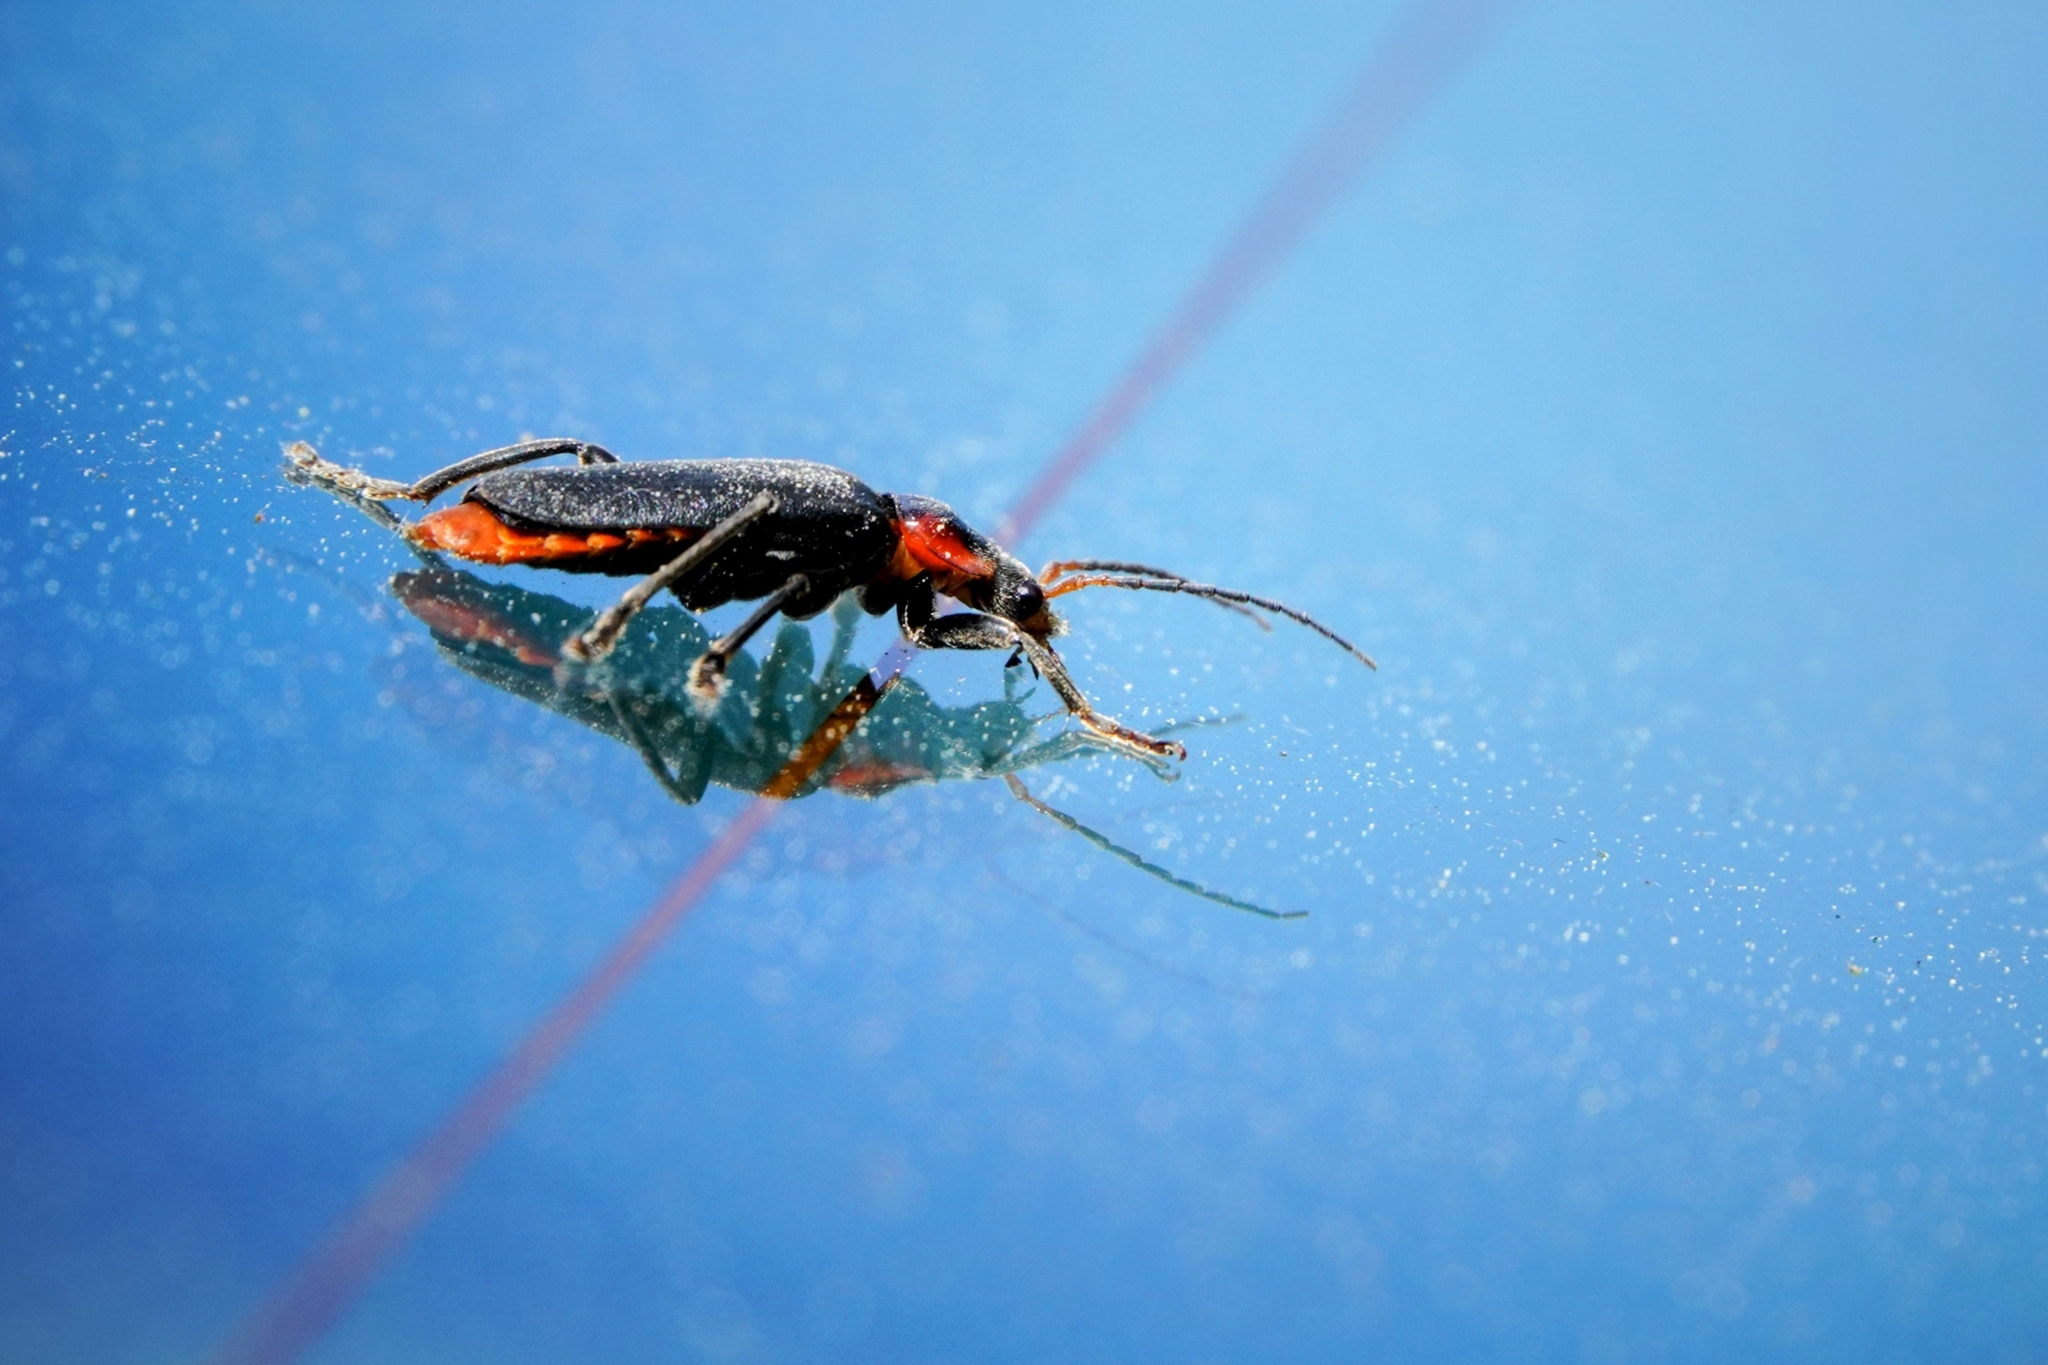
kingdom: Animalia
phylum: Arthropoda
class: Insecta
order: Coleoptera
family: Cantharidae
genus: Cantharis
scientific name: Cantharis fusca
